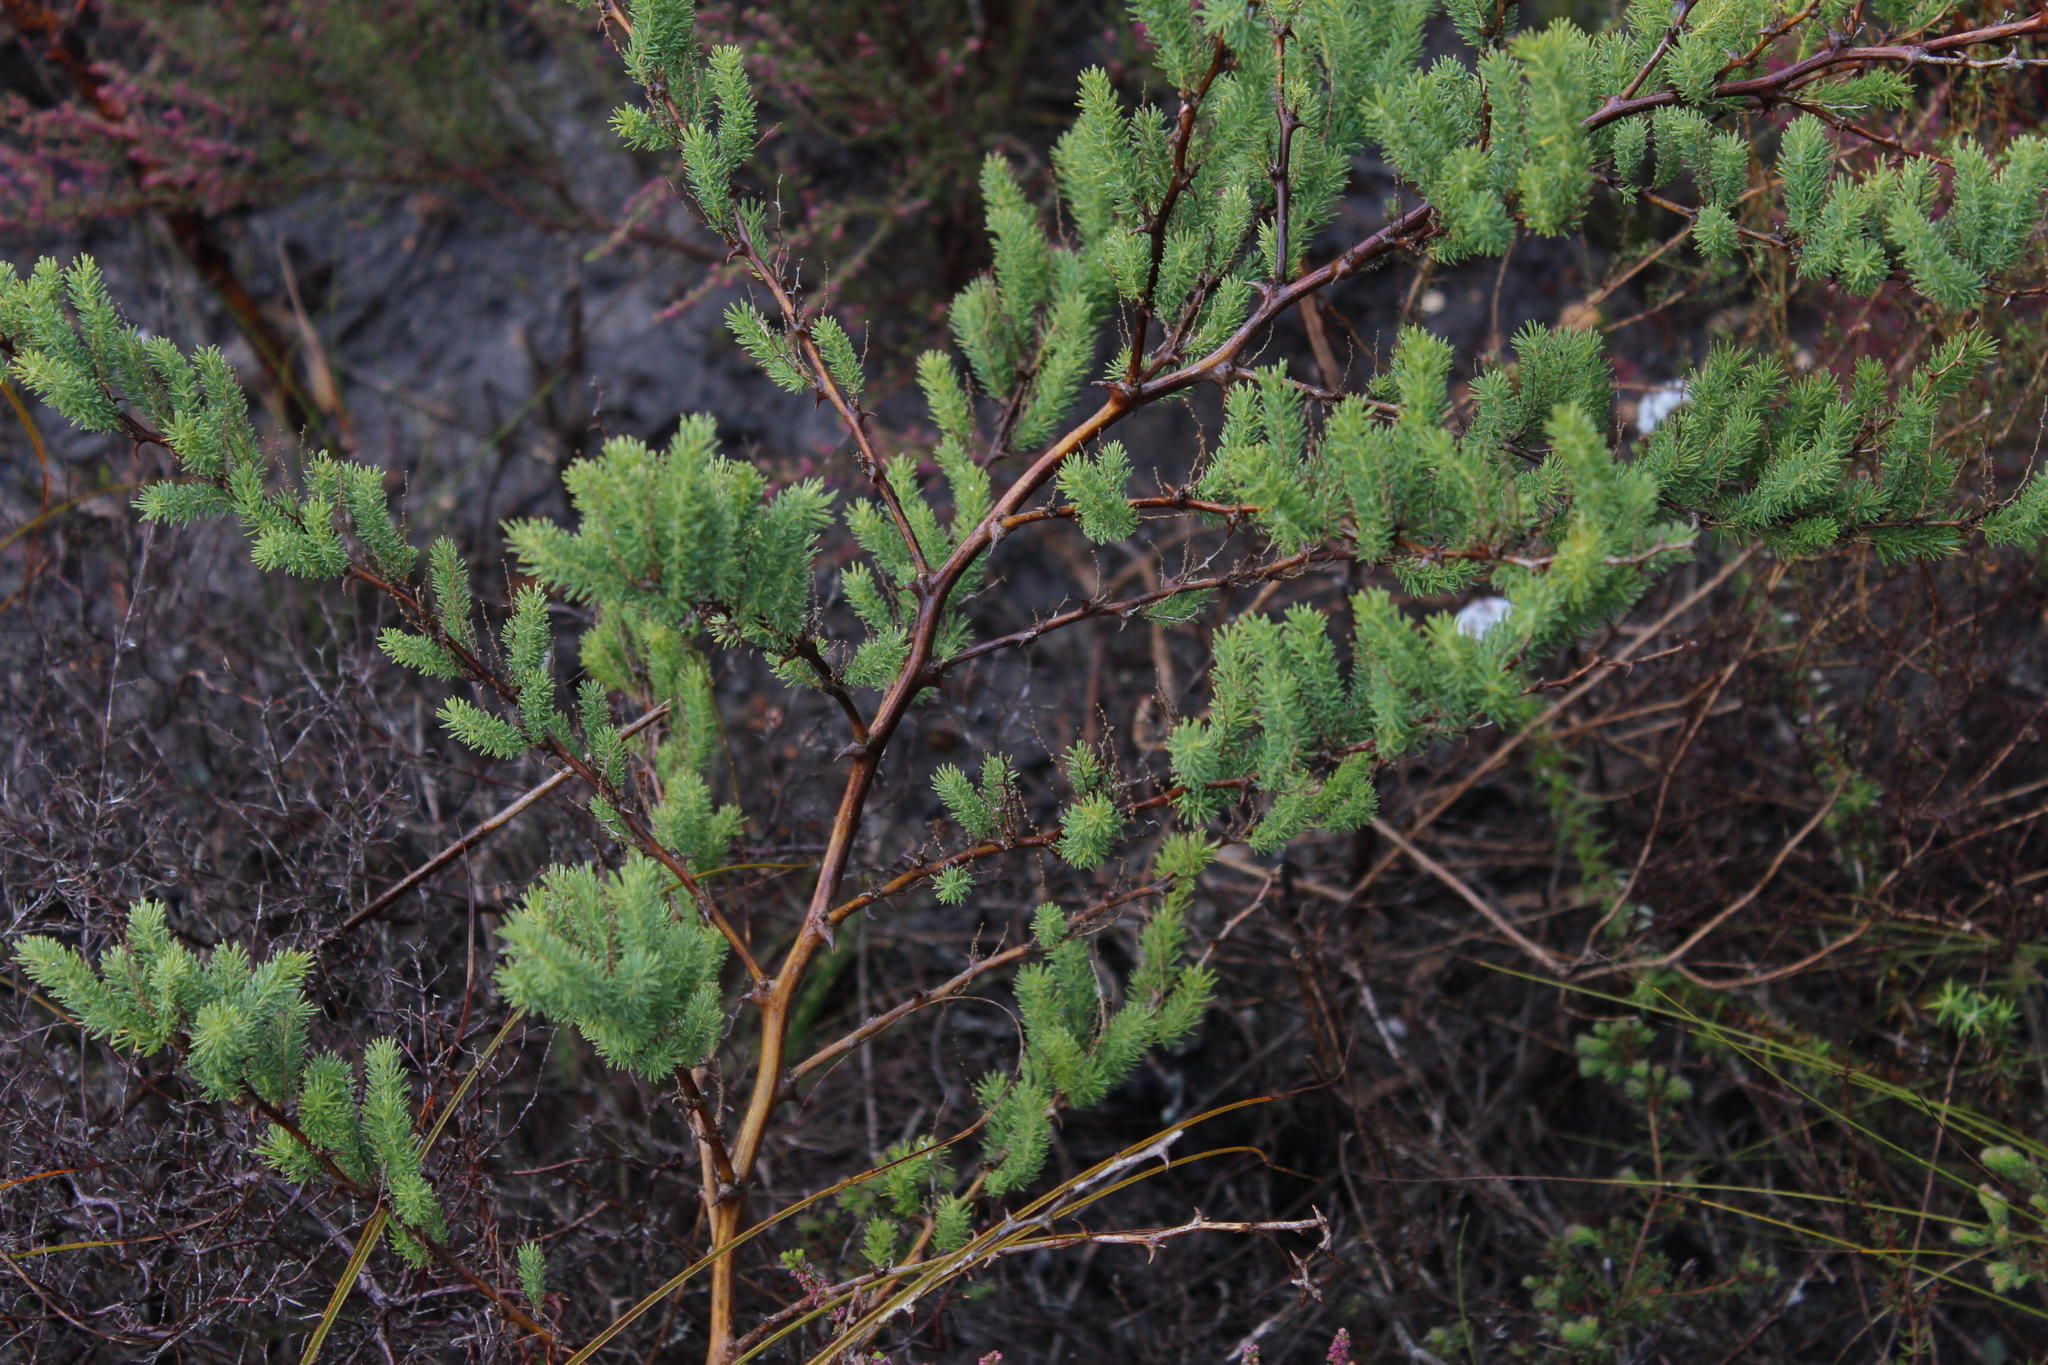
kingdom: Plantae
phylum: Tracheophyta
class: Liliopsida
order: Asparagales
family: Asparagaceae
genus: Asparagus
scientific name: Asparagus rubicundus
